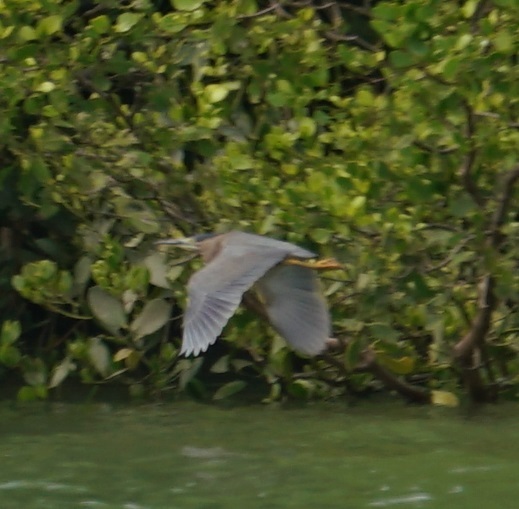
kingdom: Animalia
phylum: Chordata
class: Aves
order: Pelecaniformes
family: Ardeidae
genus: Butorides
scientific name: Butorides striata
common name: Striated heron
